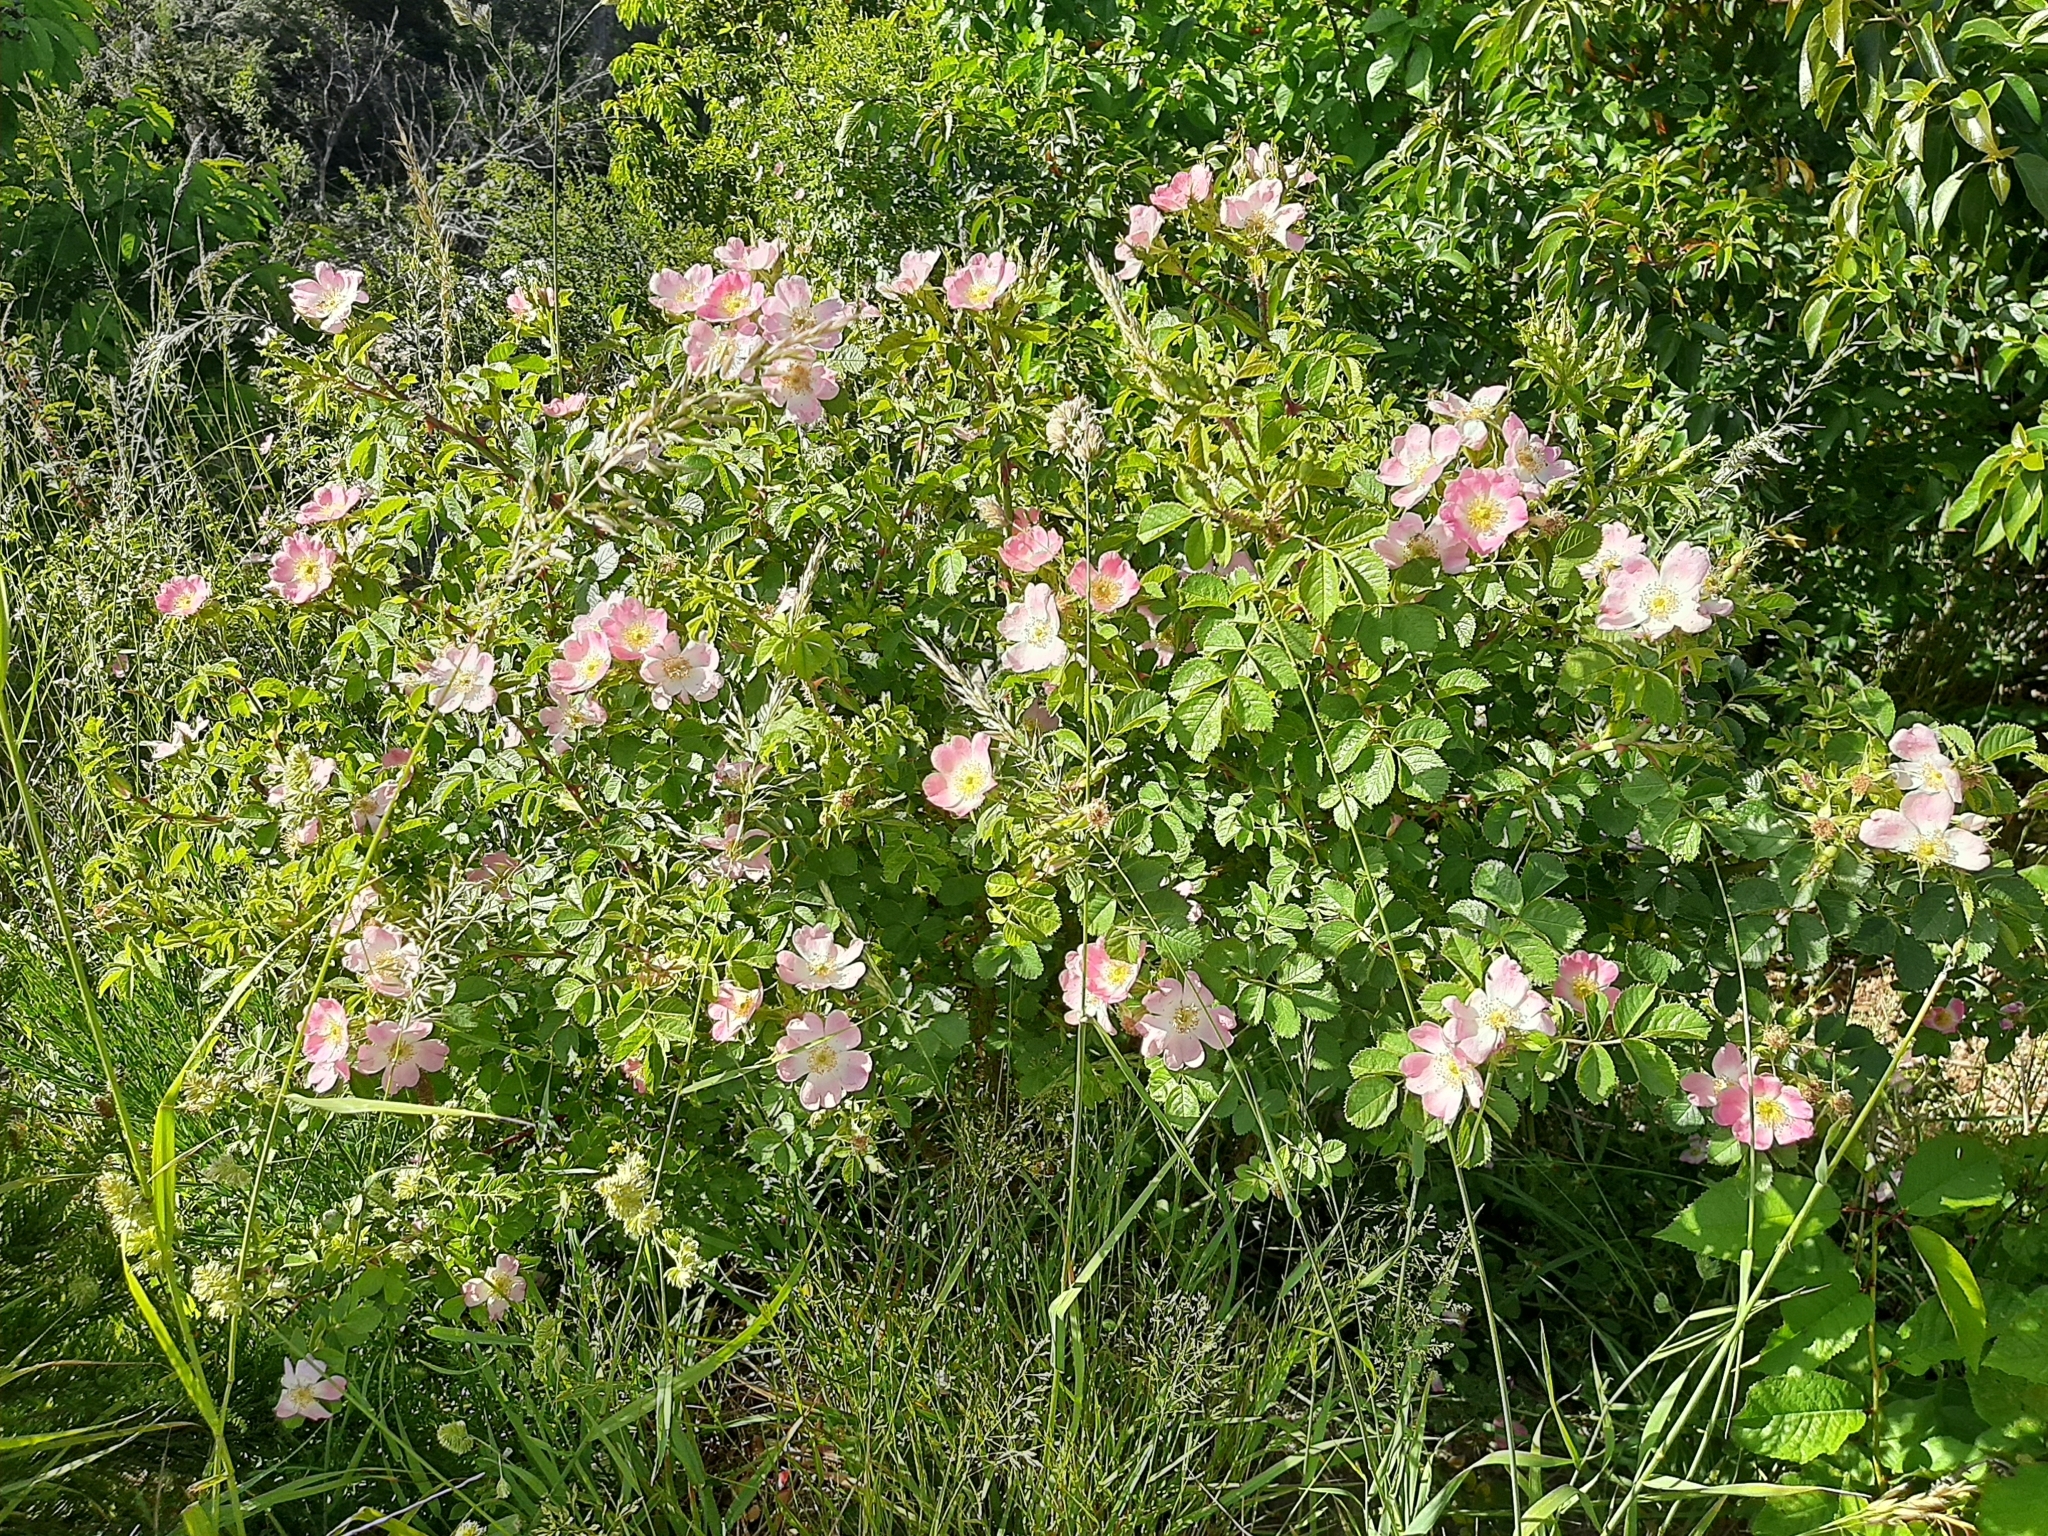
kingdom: Plantae
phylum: Tracheophyta
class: Magnoliopsida
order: Rosales
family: Rosaceae
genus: Rosa
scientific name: Rosa rubiginosa
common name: Sweet-briar
